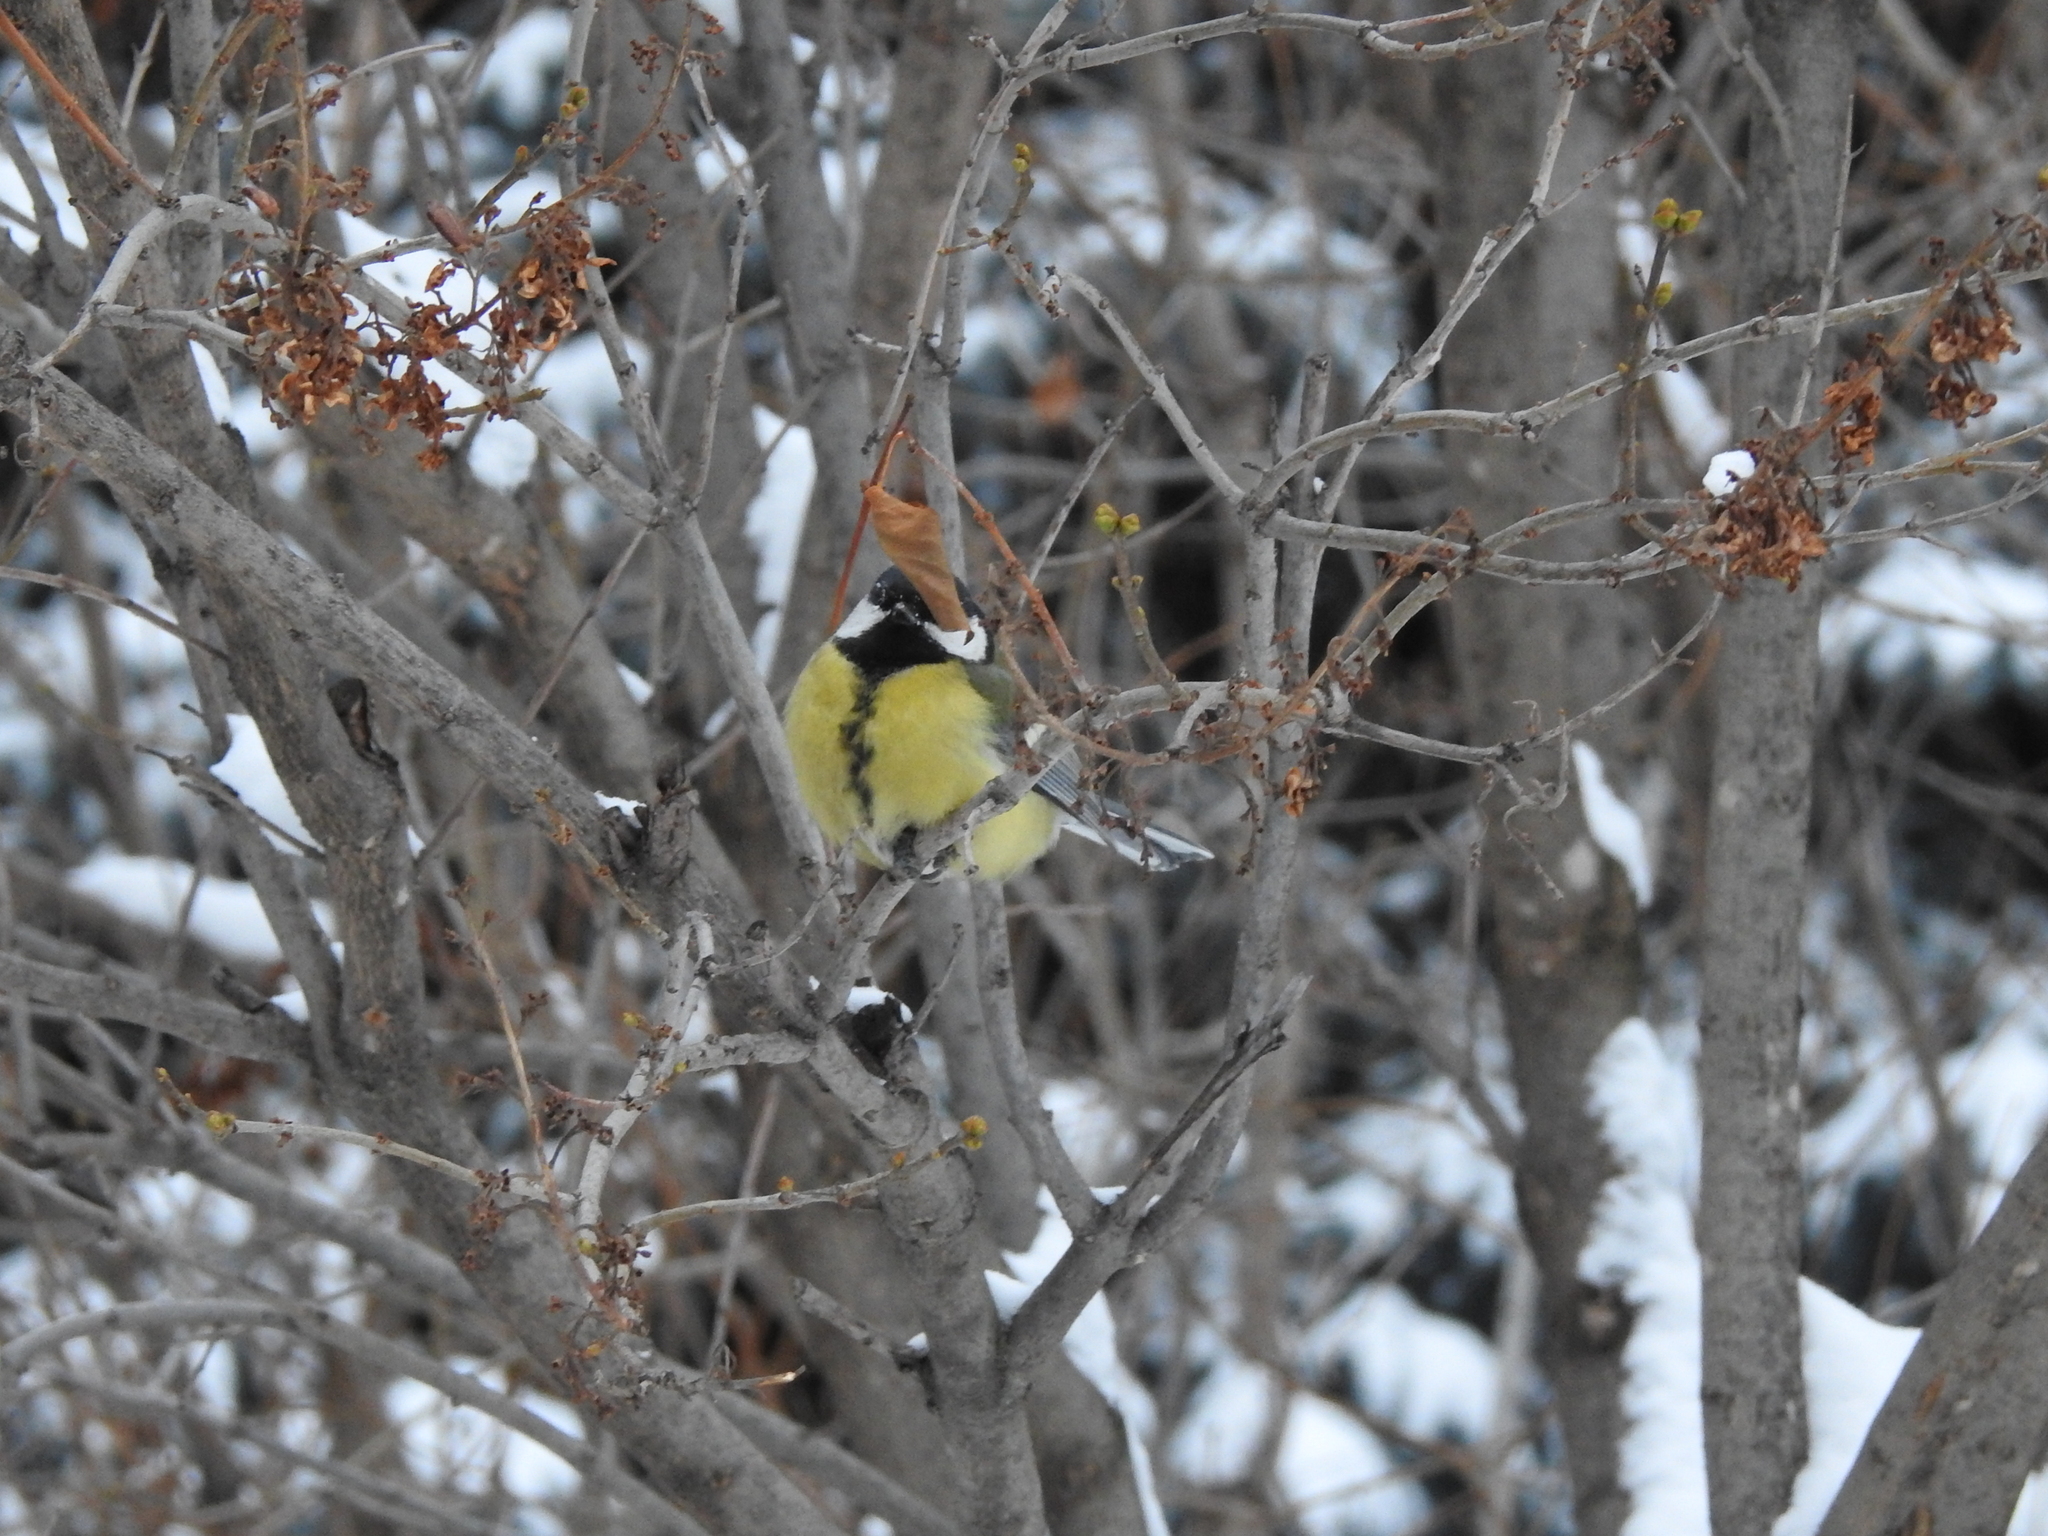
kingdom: Animalia
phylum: Chordata
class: Aves
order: Passeriformes
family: Paridae
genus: Parus
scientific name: Parus major
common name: Great tit
